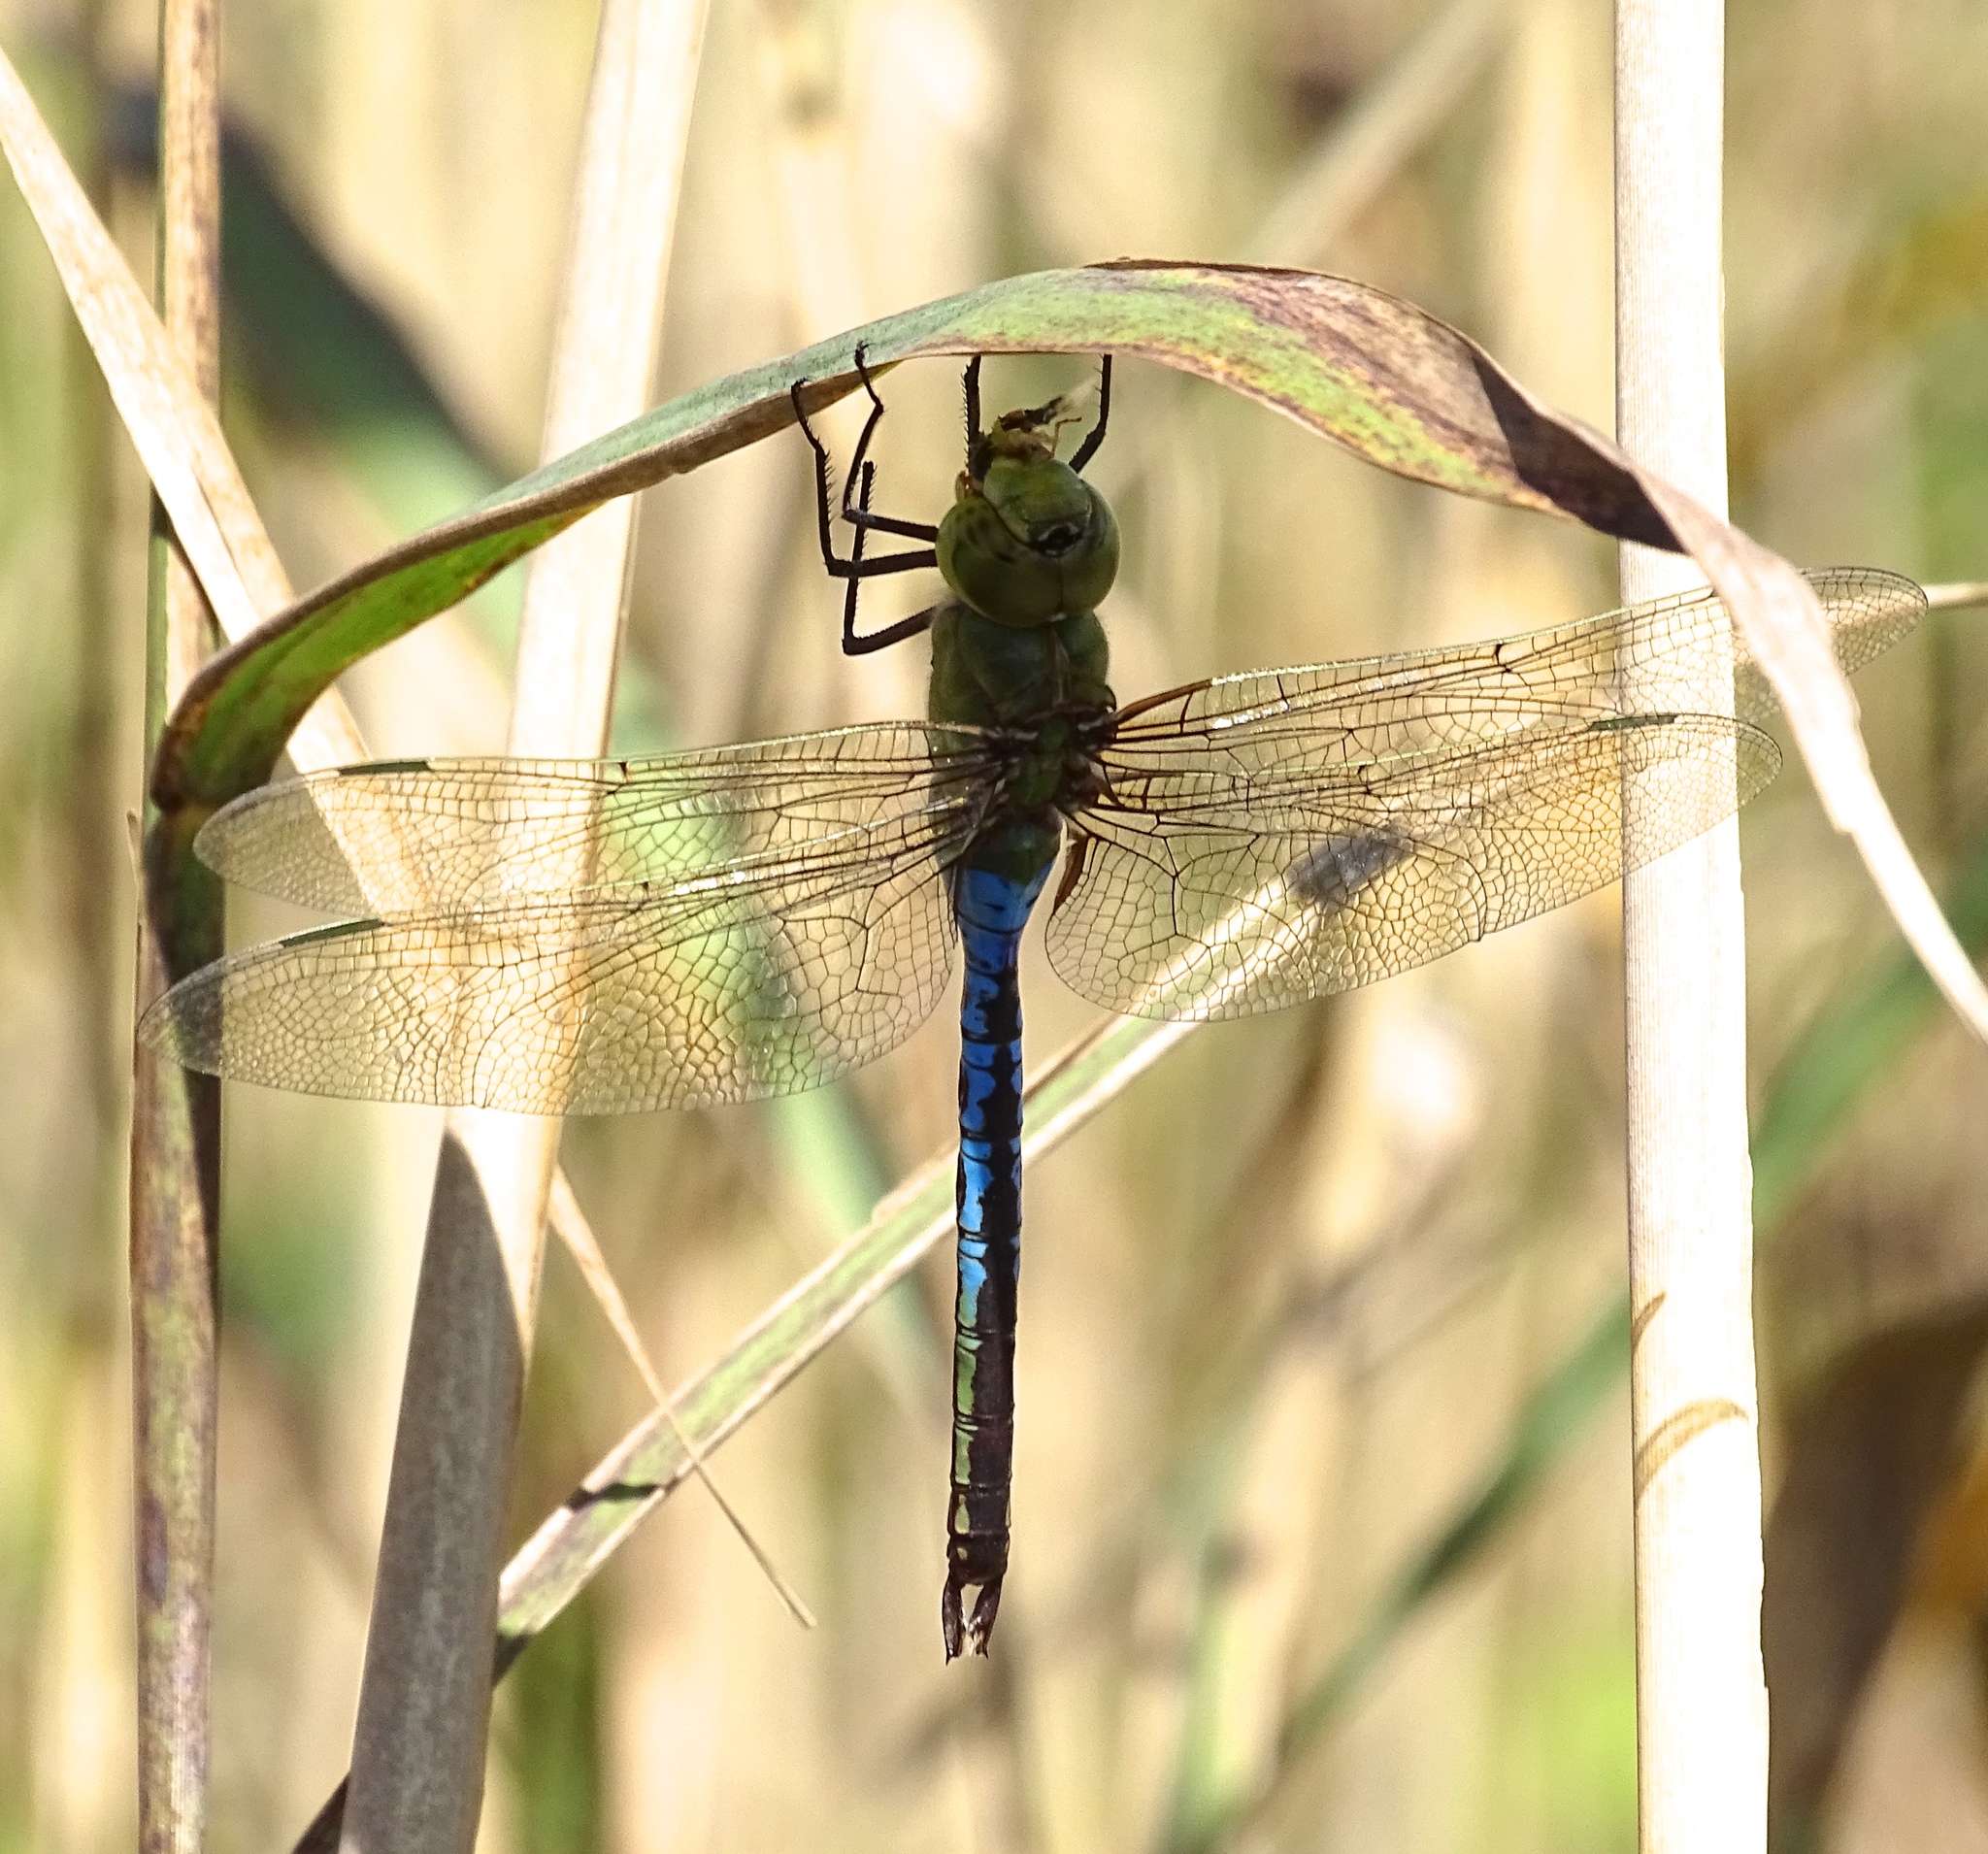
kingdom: Animalia
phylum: Arthropoda
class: Insecta
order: Odonata
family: Aeshnidae
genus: Anax
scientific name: Anax junius
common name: Common green darner
